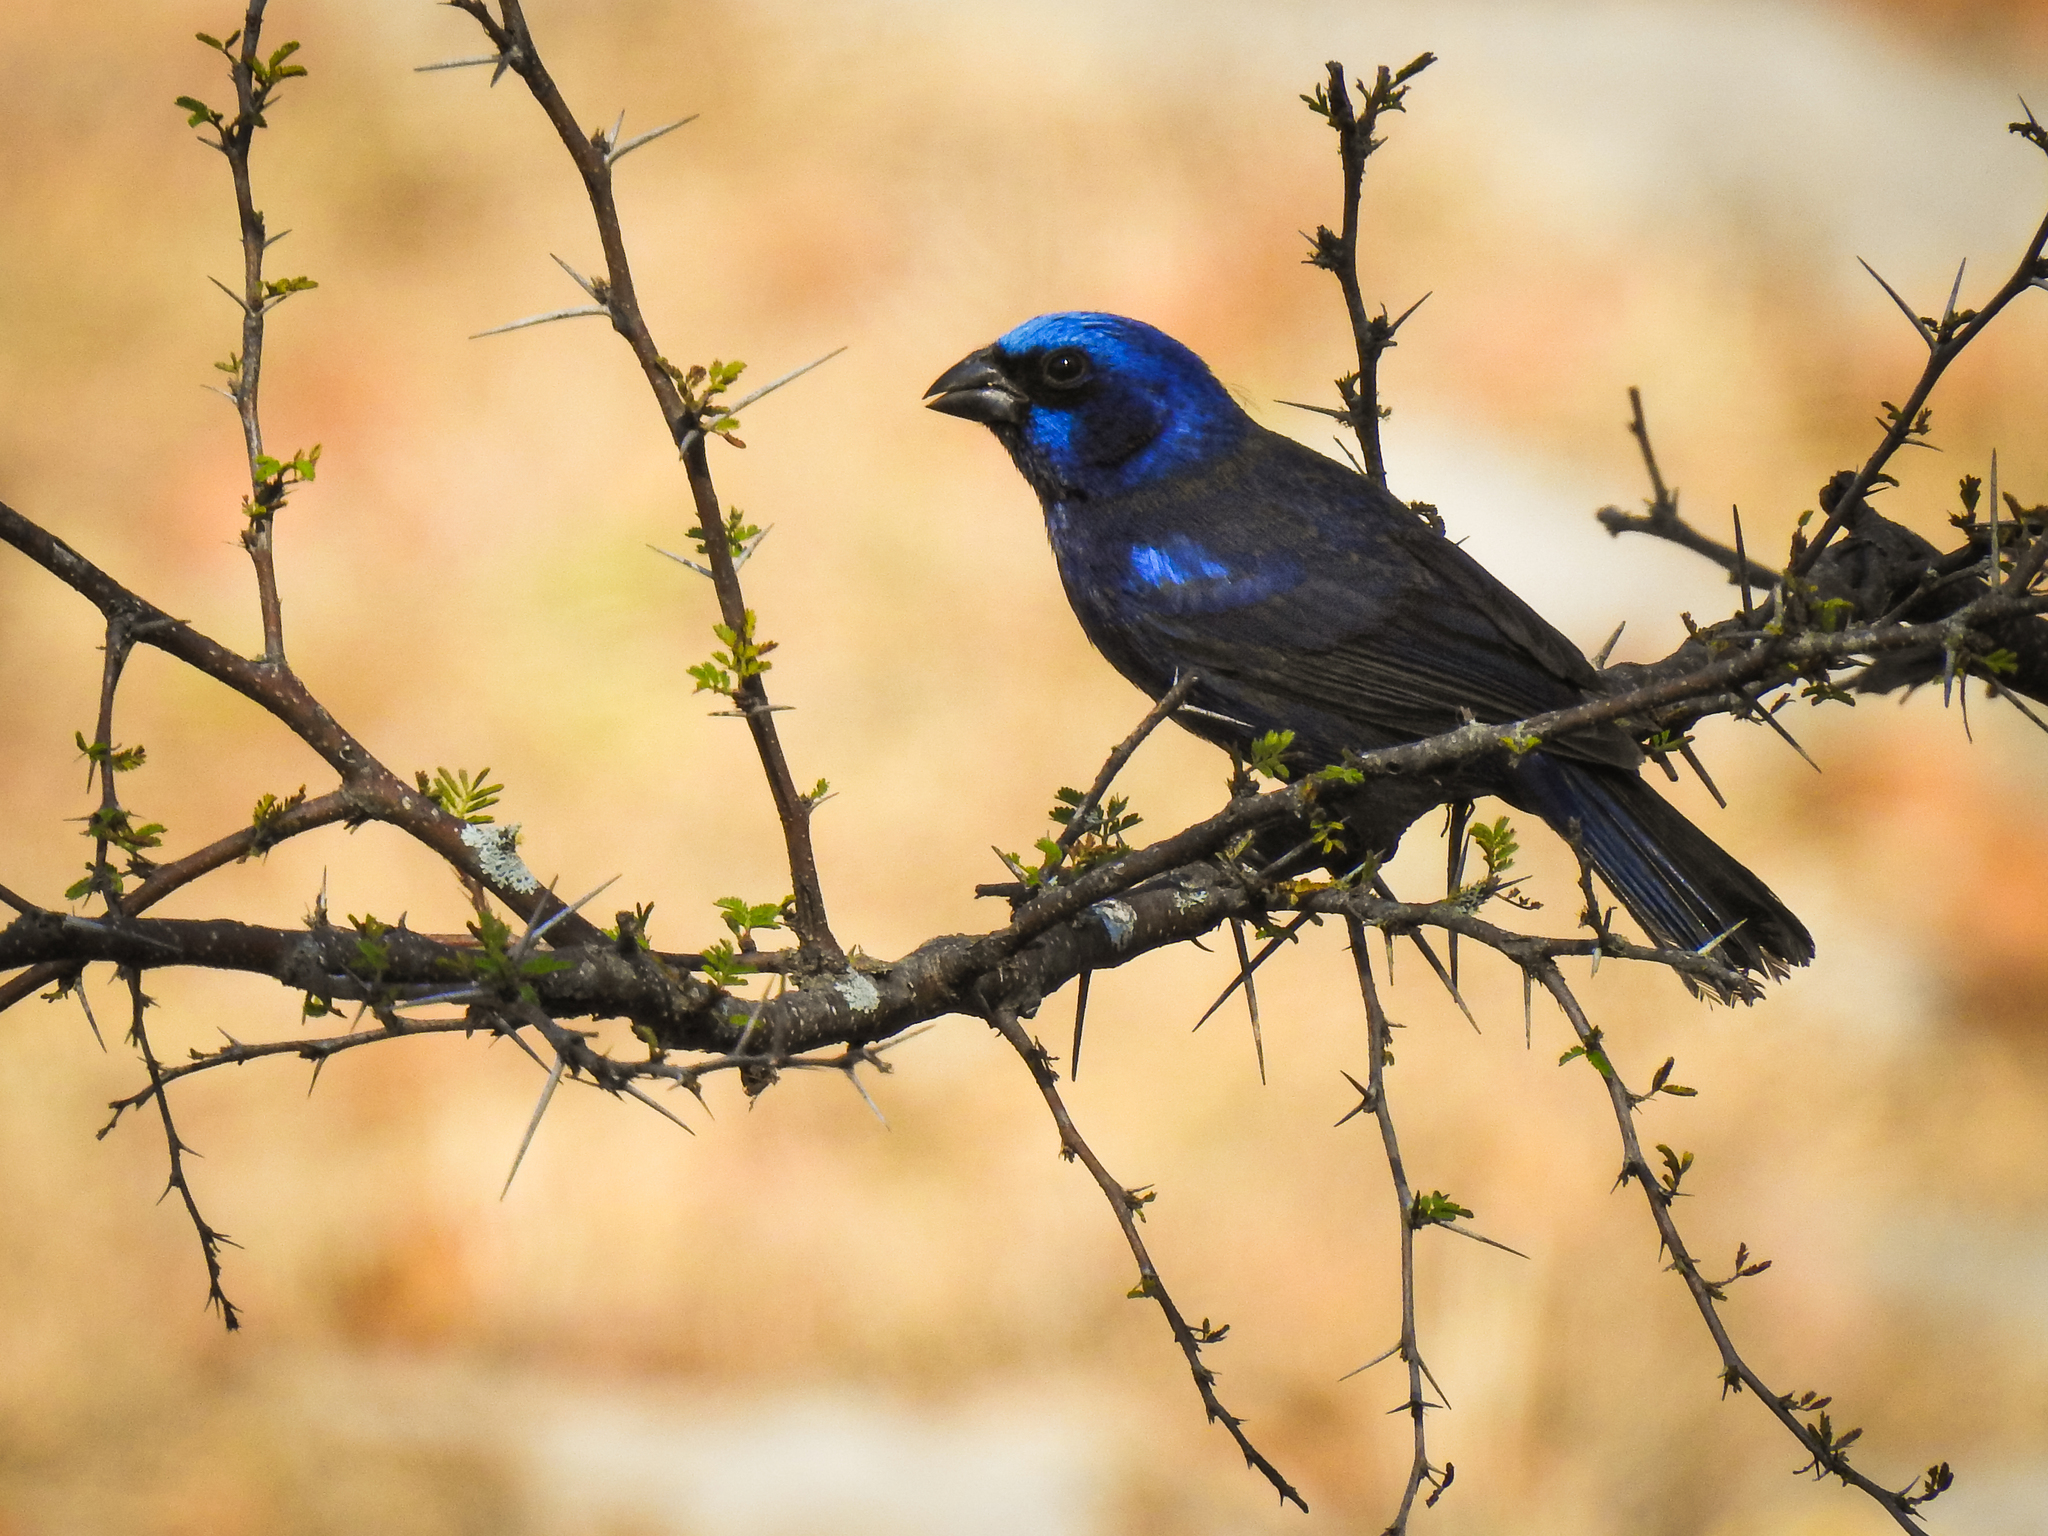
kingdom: Animalia
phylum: Chordata
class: Aves
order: Passeriformes
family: Cardinalidae
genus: Cyanocompsa
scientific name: Cyanocompsa parellina
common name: Blue bunting
